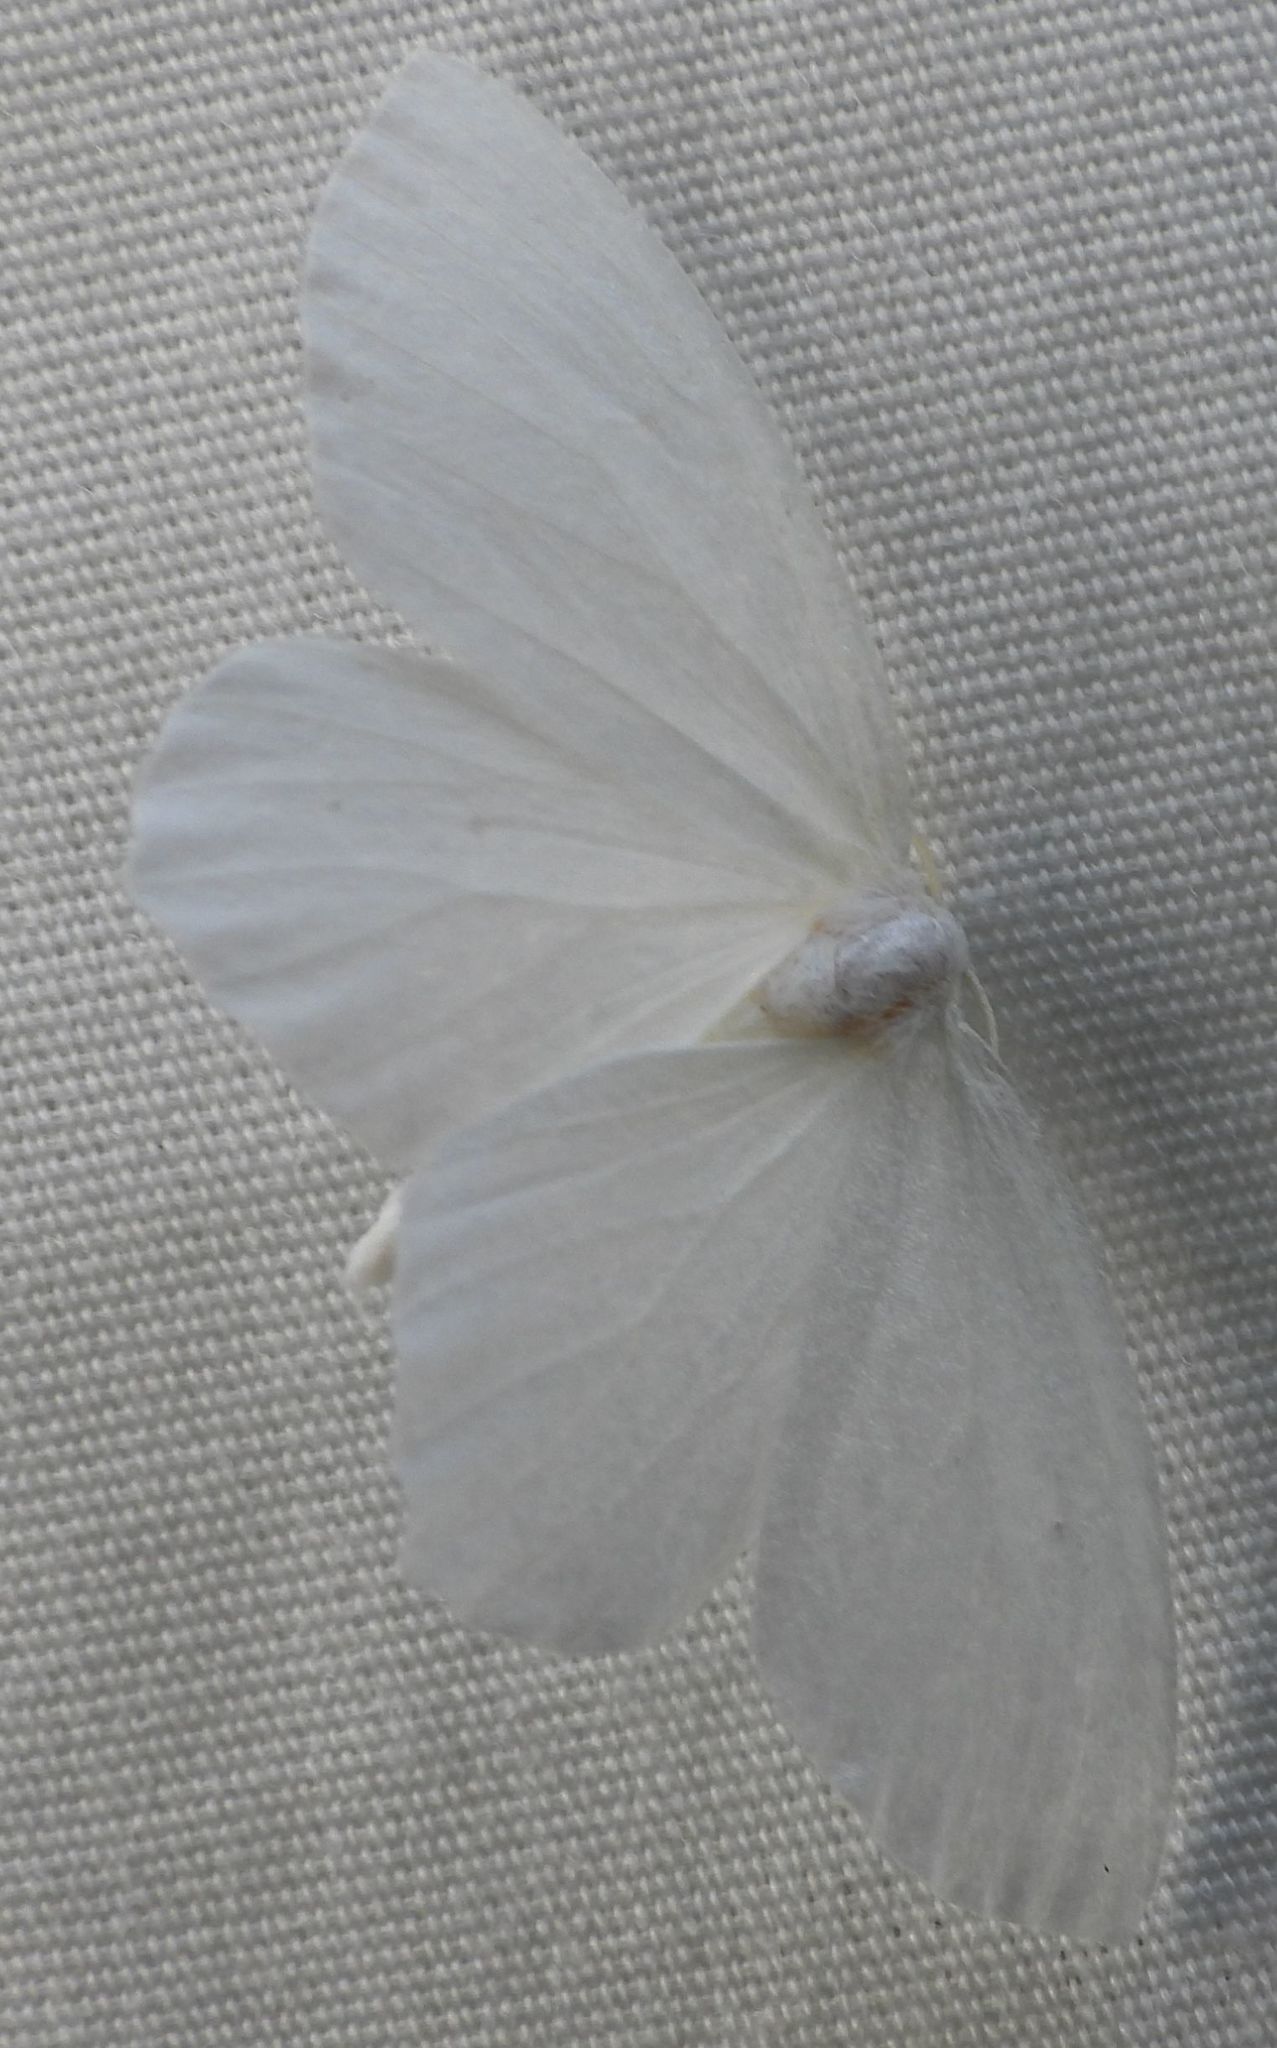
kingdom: Animalia
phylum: Arthropoda
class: Insecta
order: Lepidoptera
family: Geometridae
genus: Eugonobapta
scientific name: Eugonobapta nivosaria
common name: Snowy geometer
